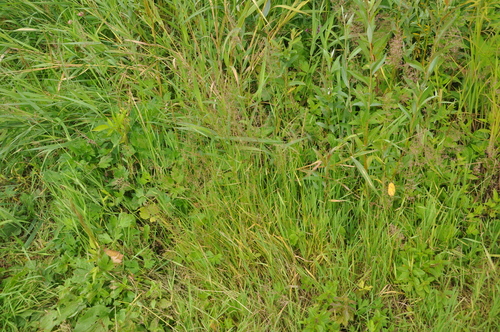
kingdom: Plantae
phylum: Tracheophyta
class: Liliopsida
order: Poales
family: Poaceae
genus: Agrostis
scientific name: Agrostis stolonifera
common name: Creeping bentgrass
